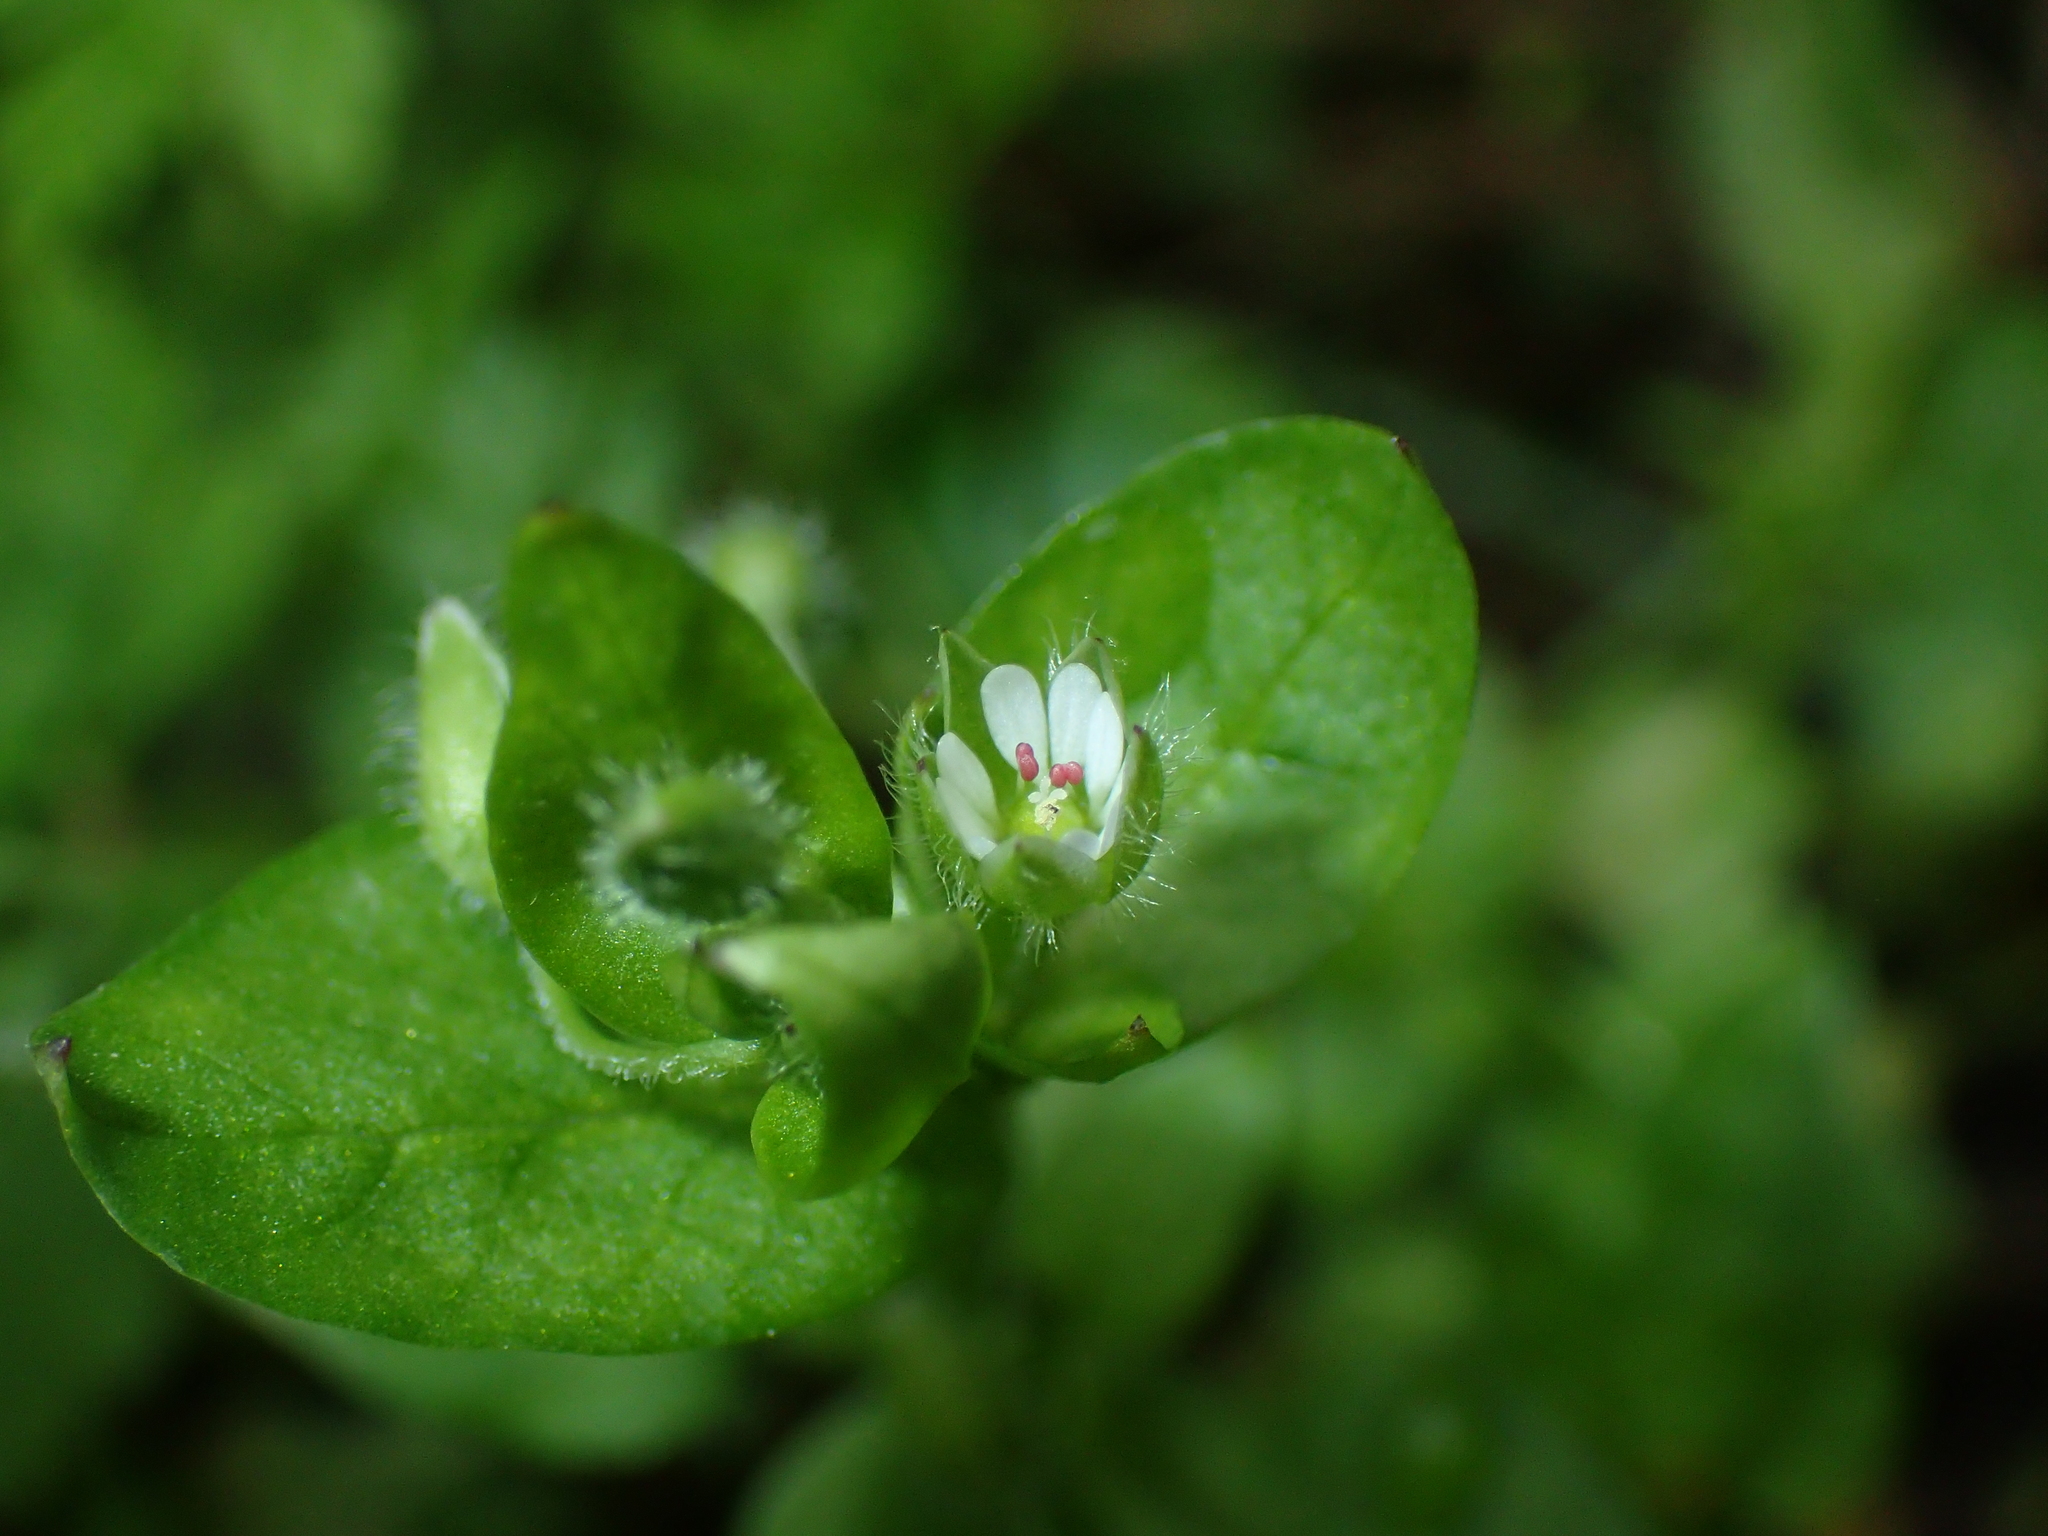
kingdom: Plantae
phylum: Tracheophyta
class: Magnoliopsida
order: Caryophyllales
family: Caryophyllaceae
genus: Stellaria
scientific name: Stellaria media
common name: Common chickweed
